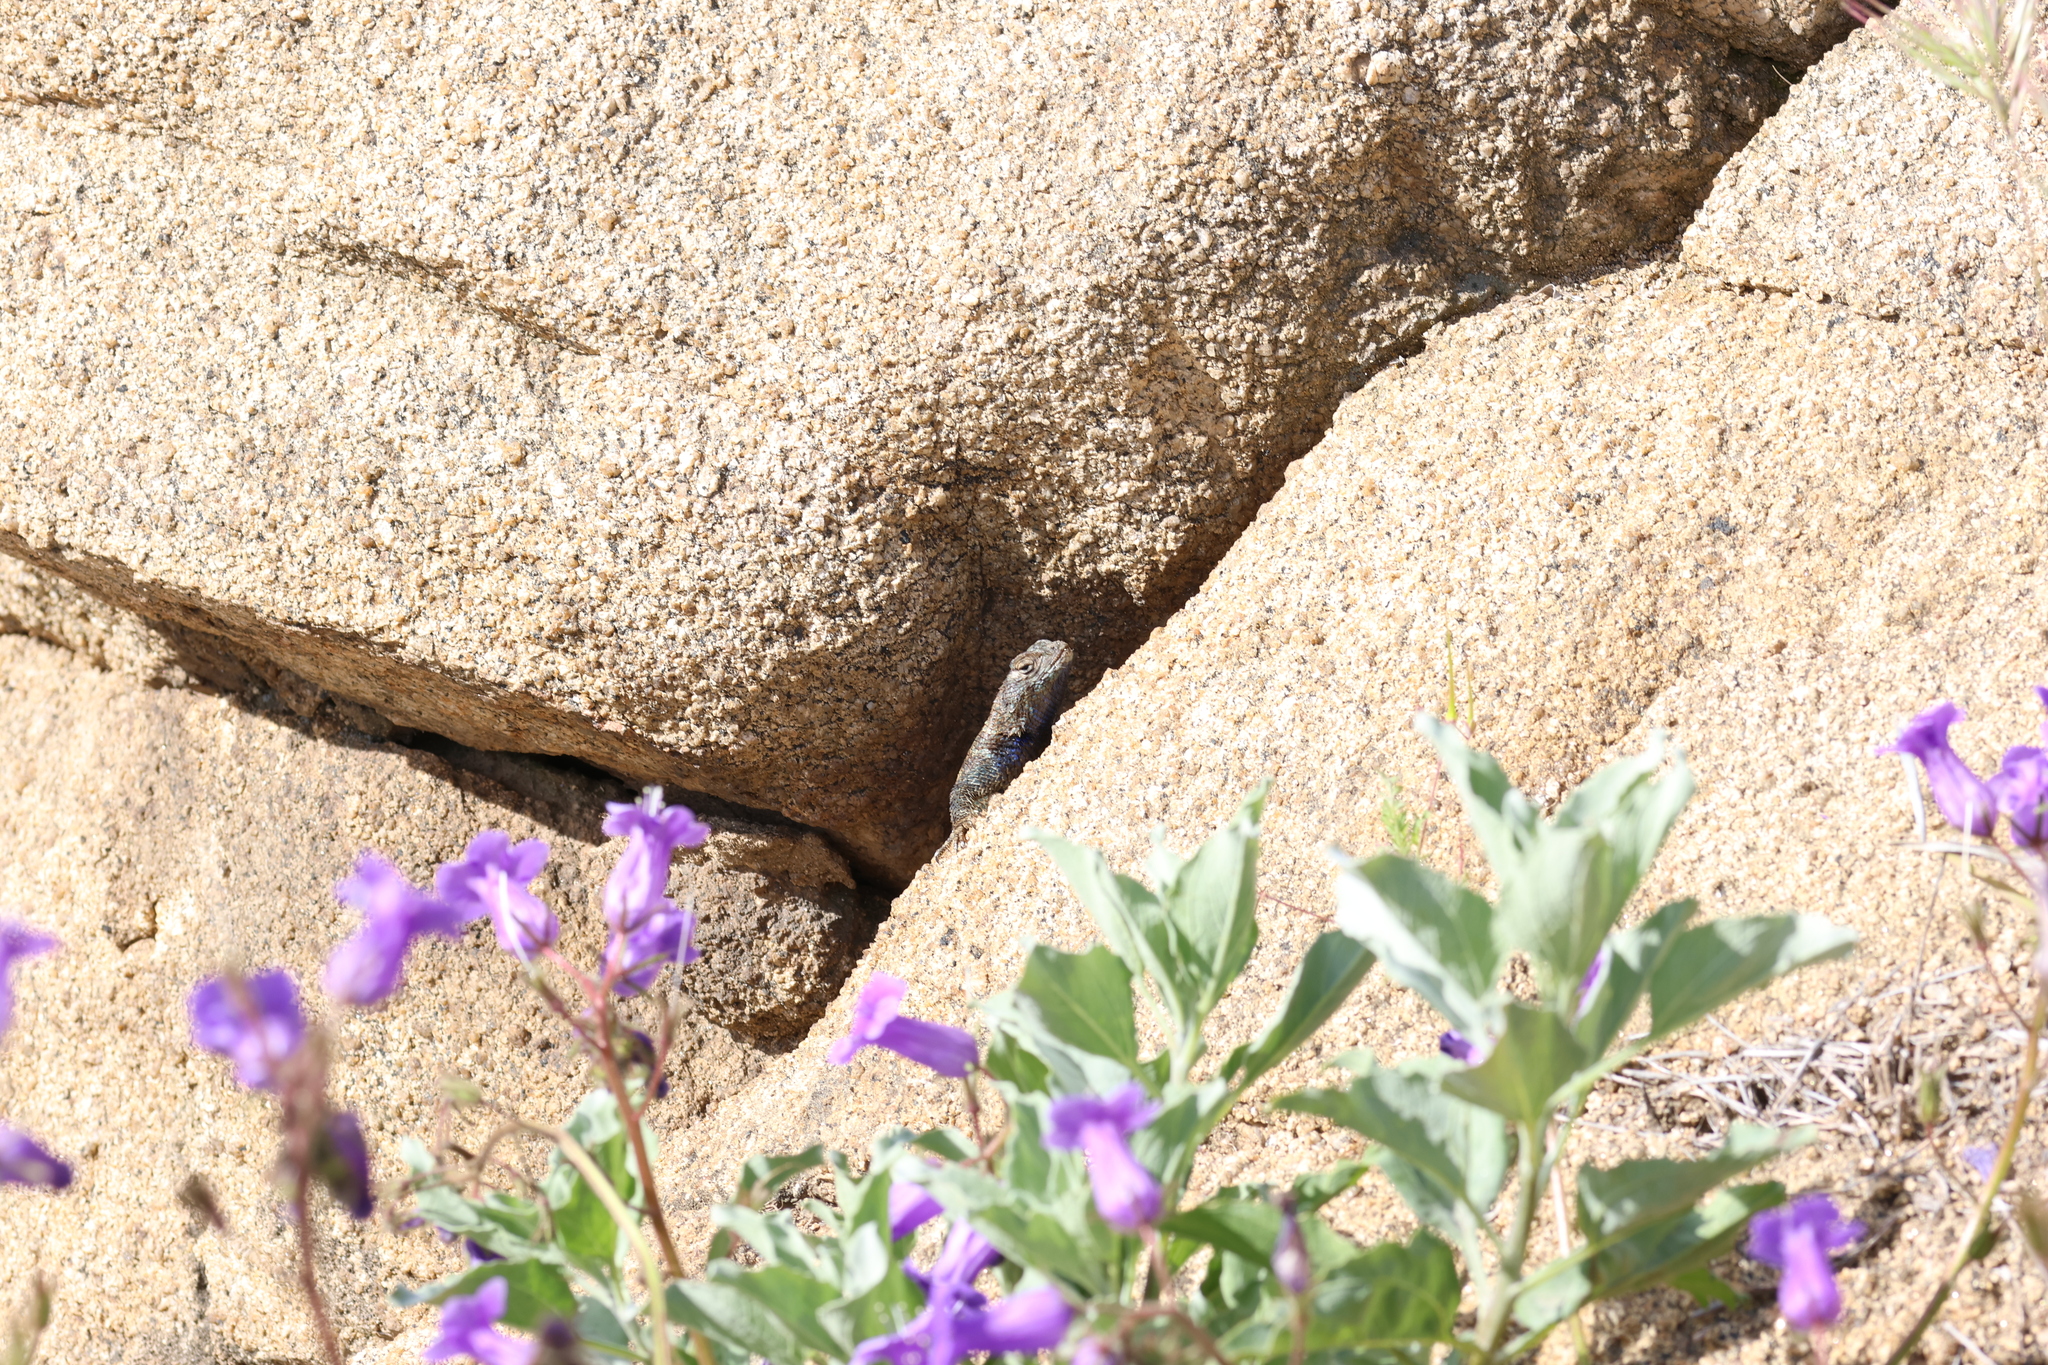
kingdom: Animalia
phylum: Chordata
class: Squamata
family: Phrynosomatidae
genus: Sceloporus
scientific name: Sceloporus orcutti
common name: Granite spiny lizard
